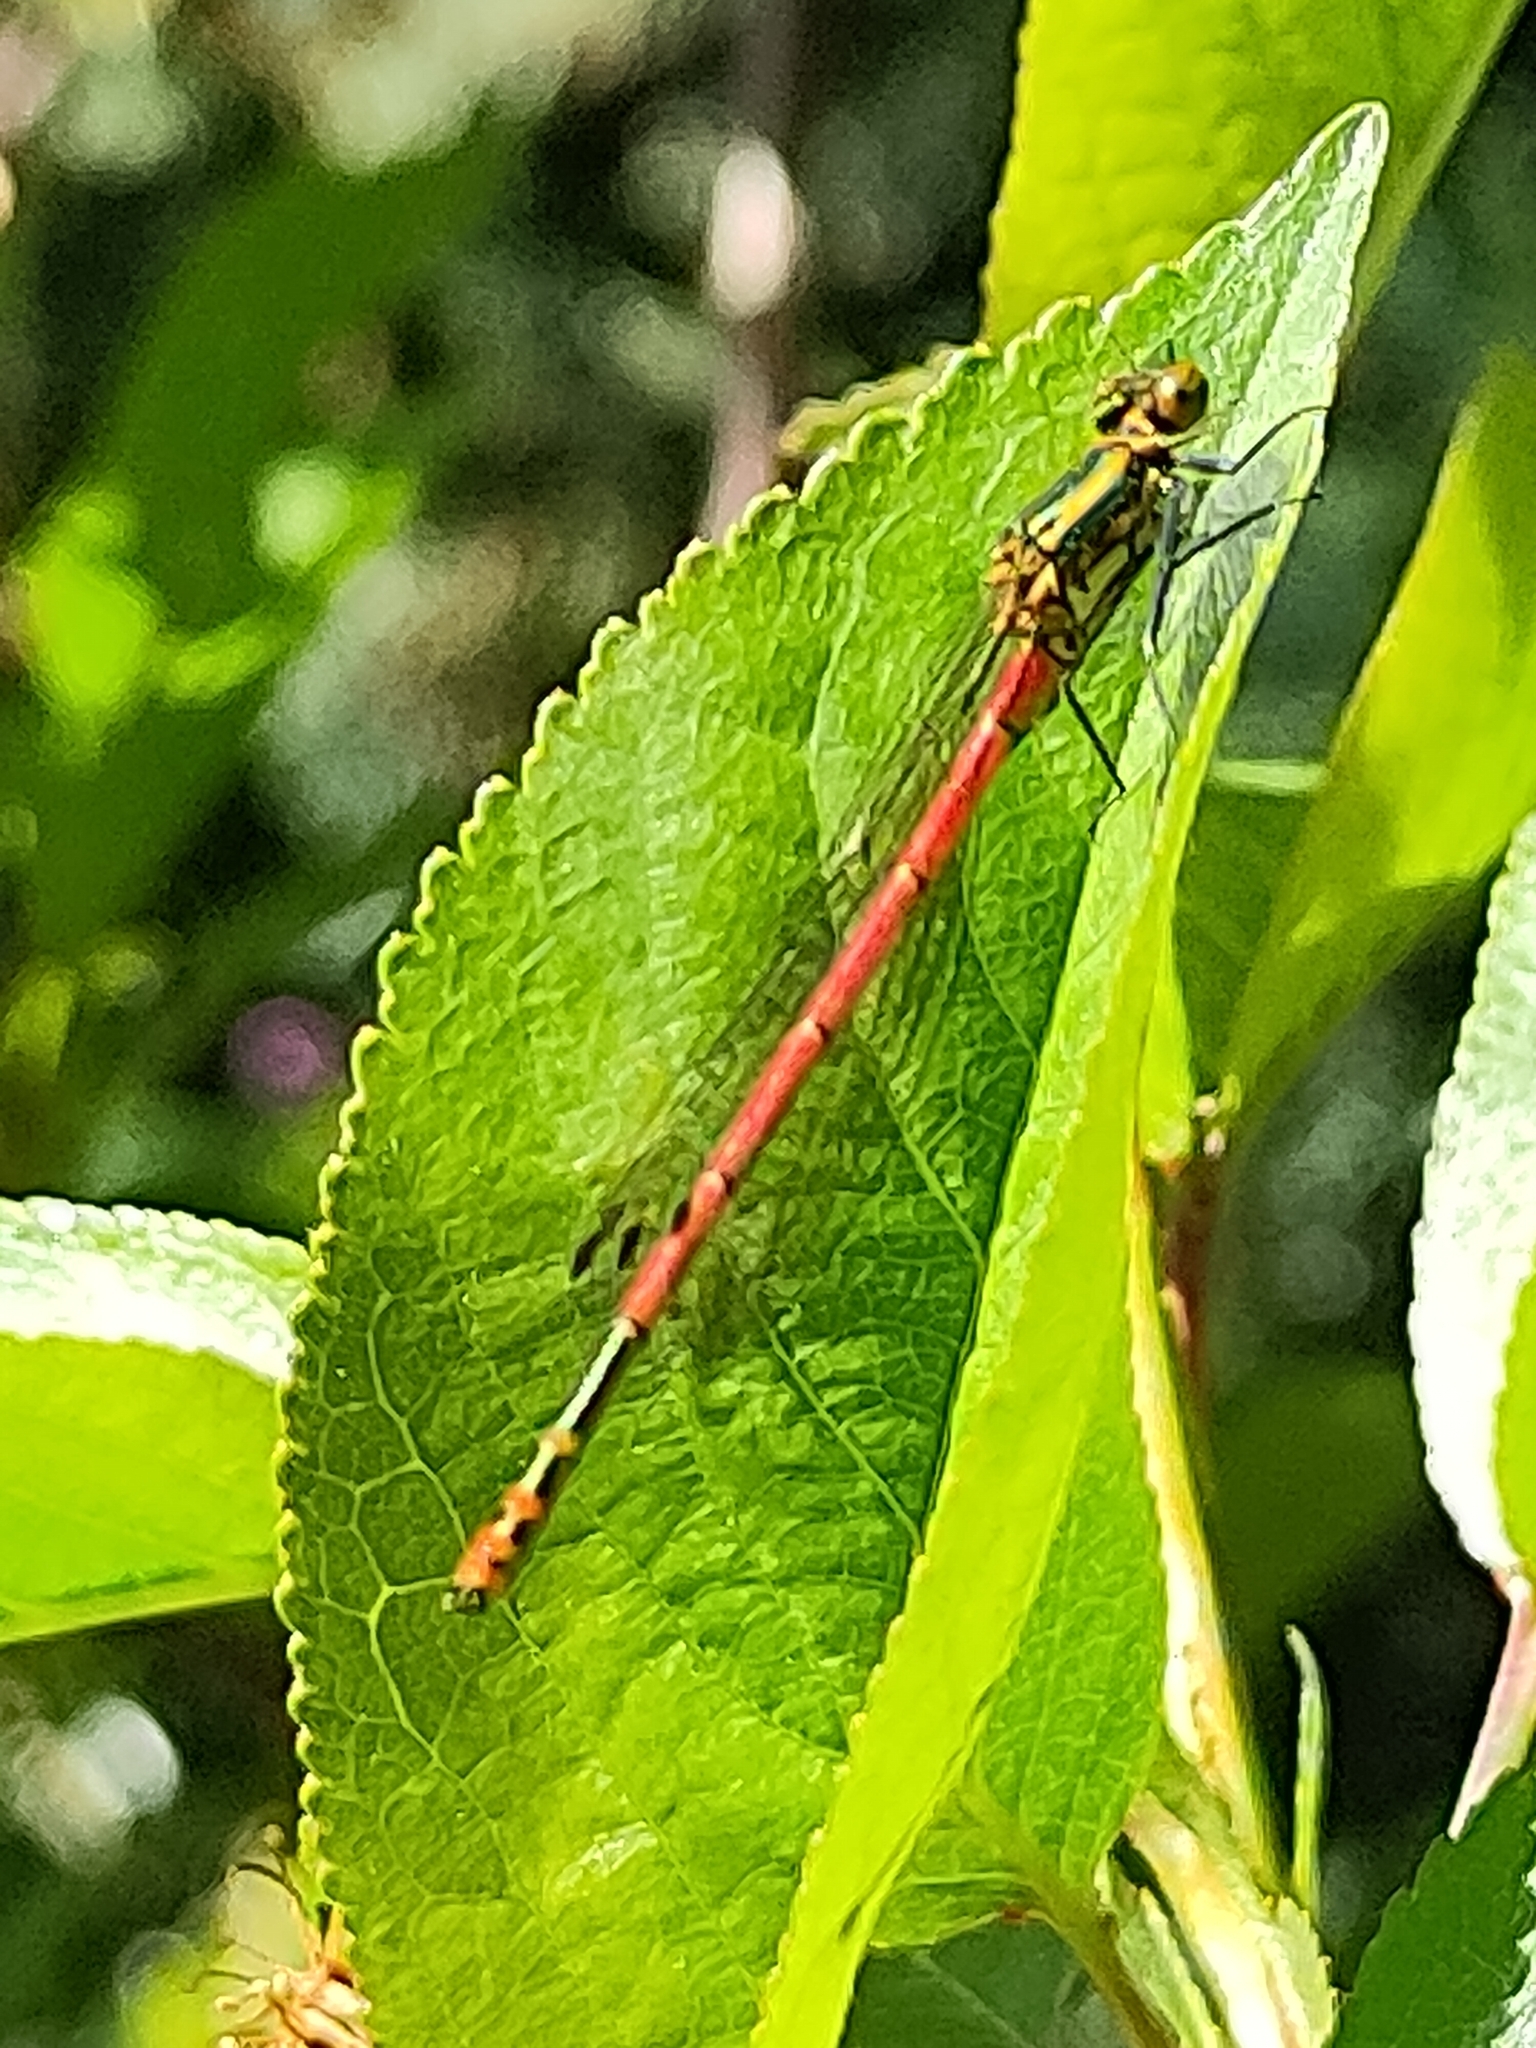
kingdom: Animalia
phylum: Arthropoda
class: Insecta
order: Odonata
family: Coenagrionidae
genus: Pyrrhosoma
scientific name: Pyrrhosoma nymphula
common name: Large red damsel
